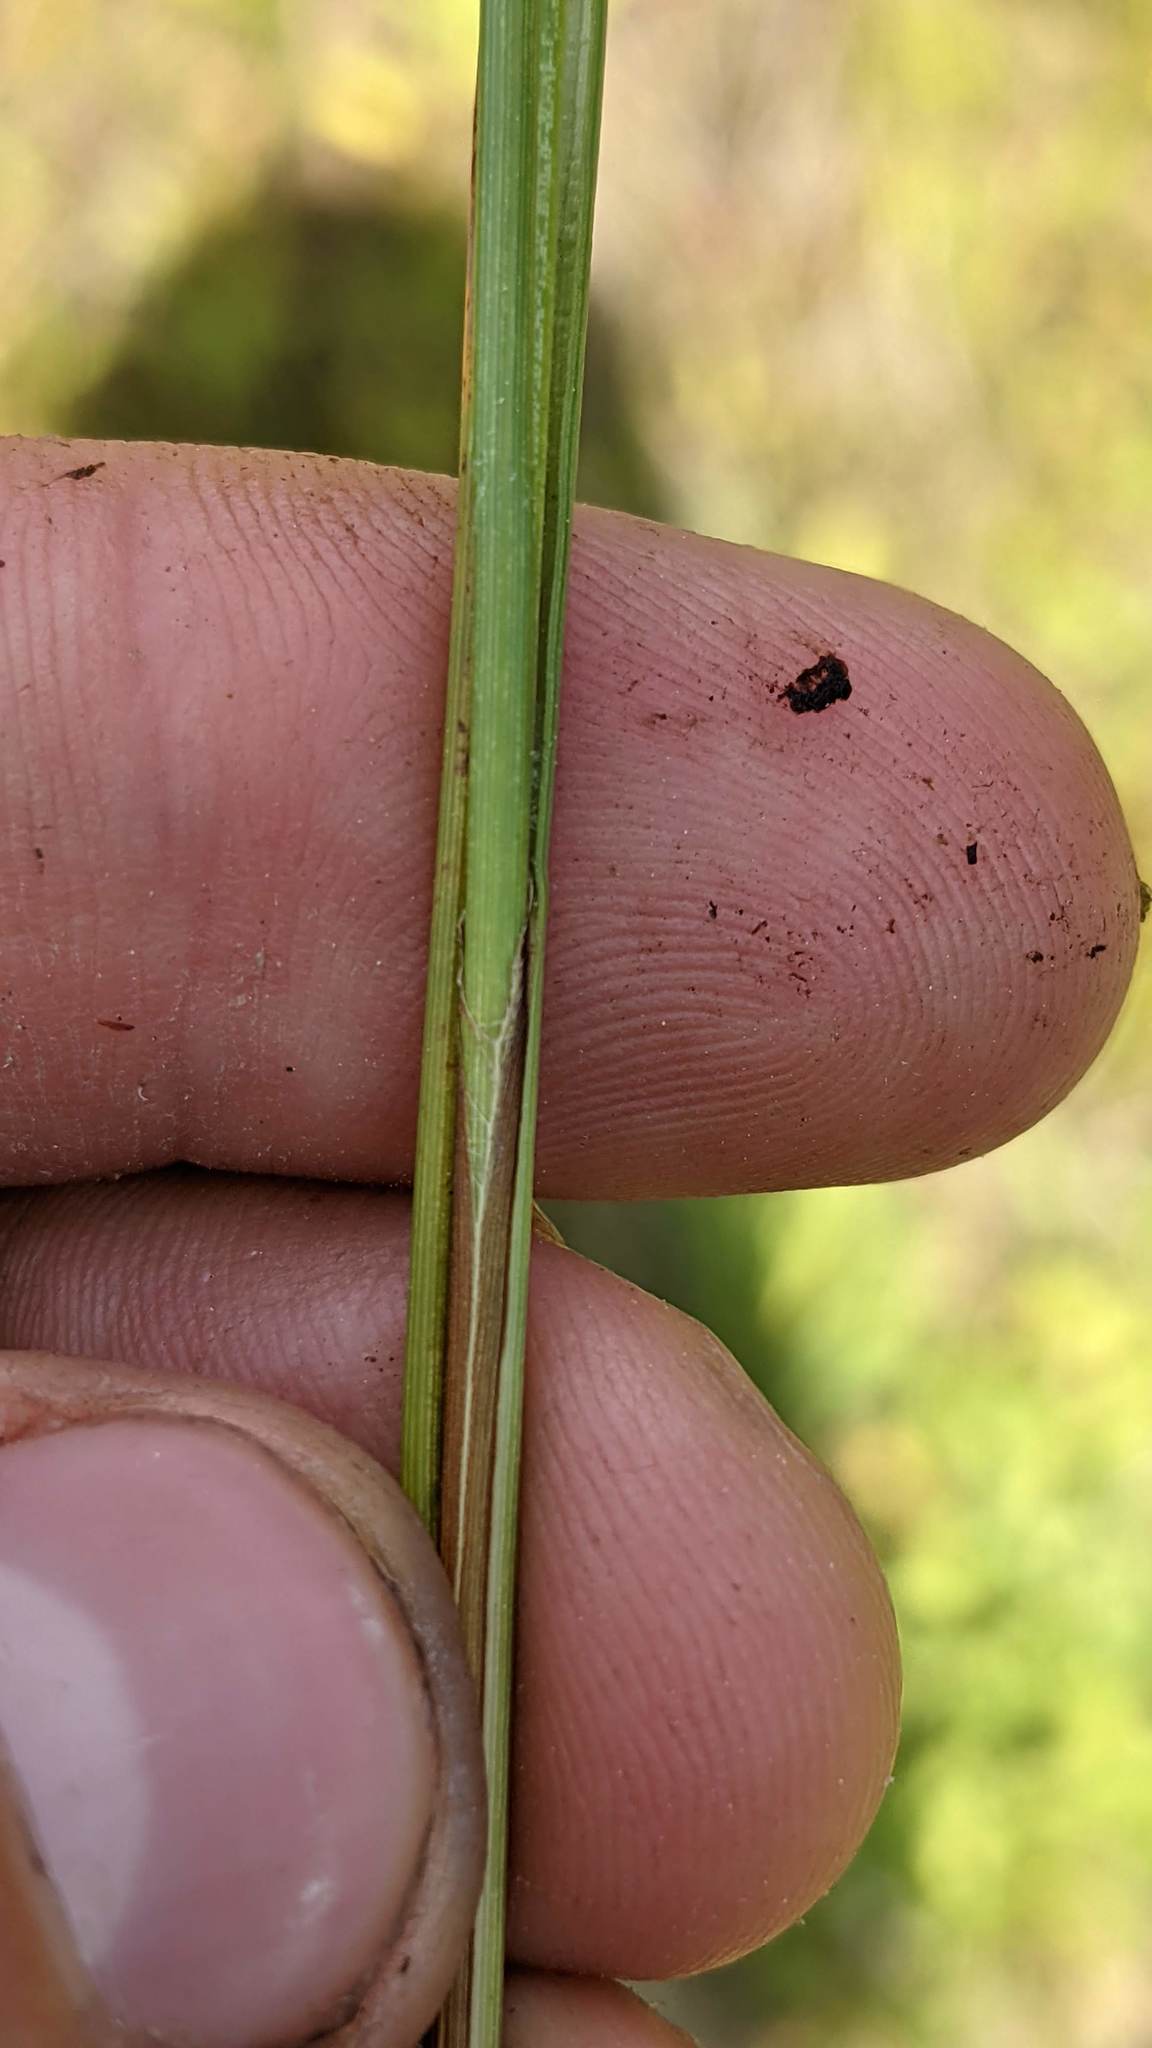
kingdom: Plantae
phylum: Tracheophyta
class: Liliopsida
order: Poales
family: Cyperaceae
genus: Carex
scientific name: Carex limosa
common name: Bog sedge
